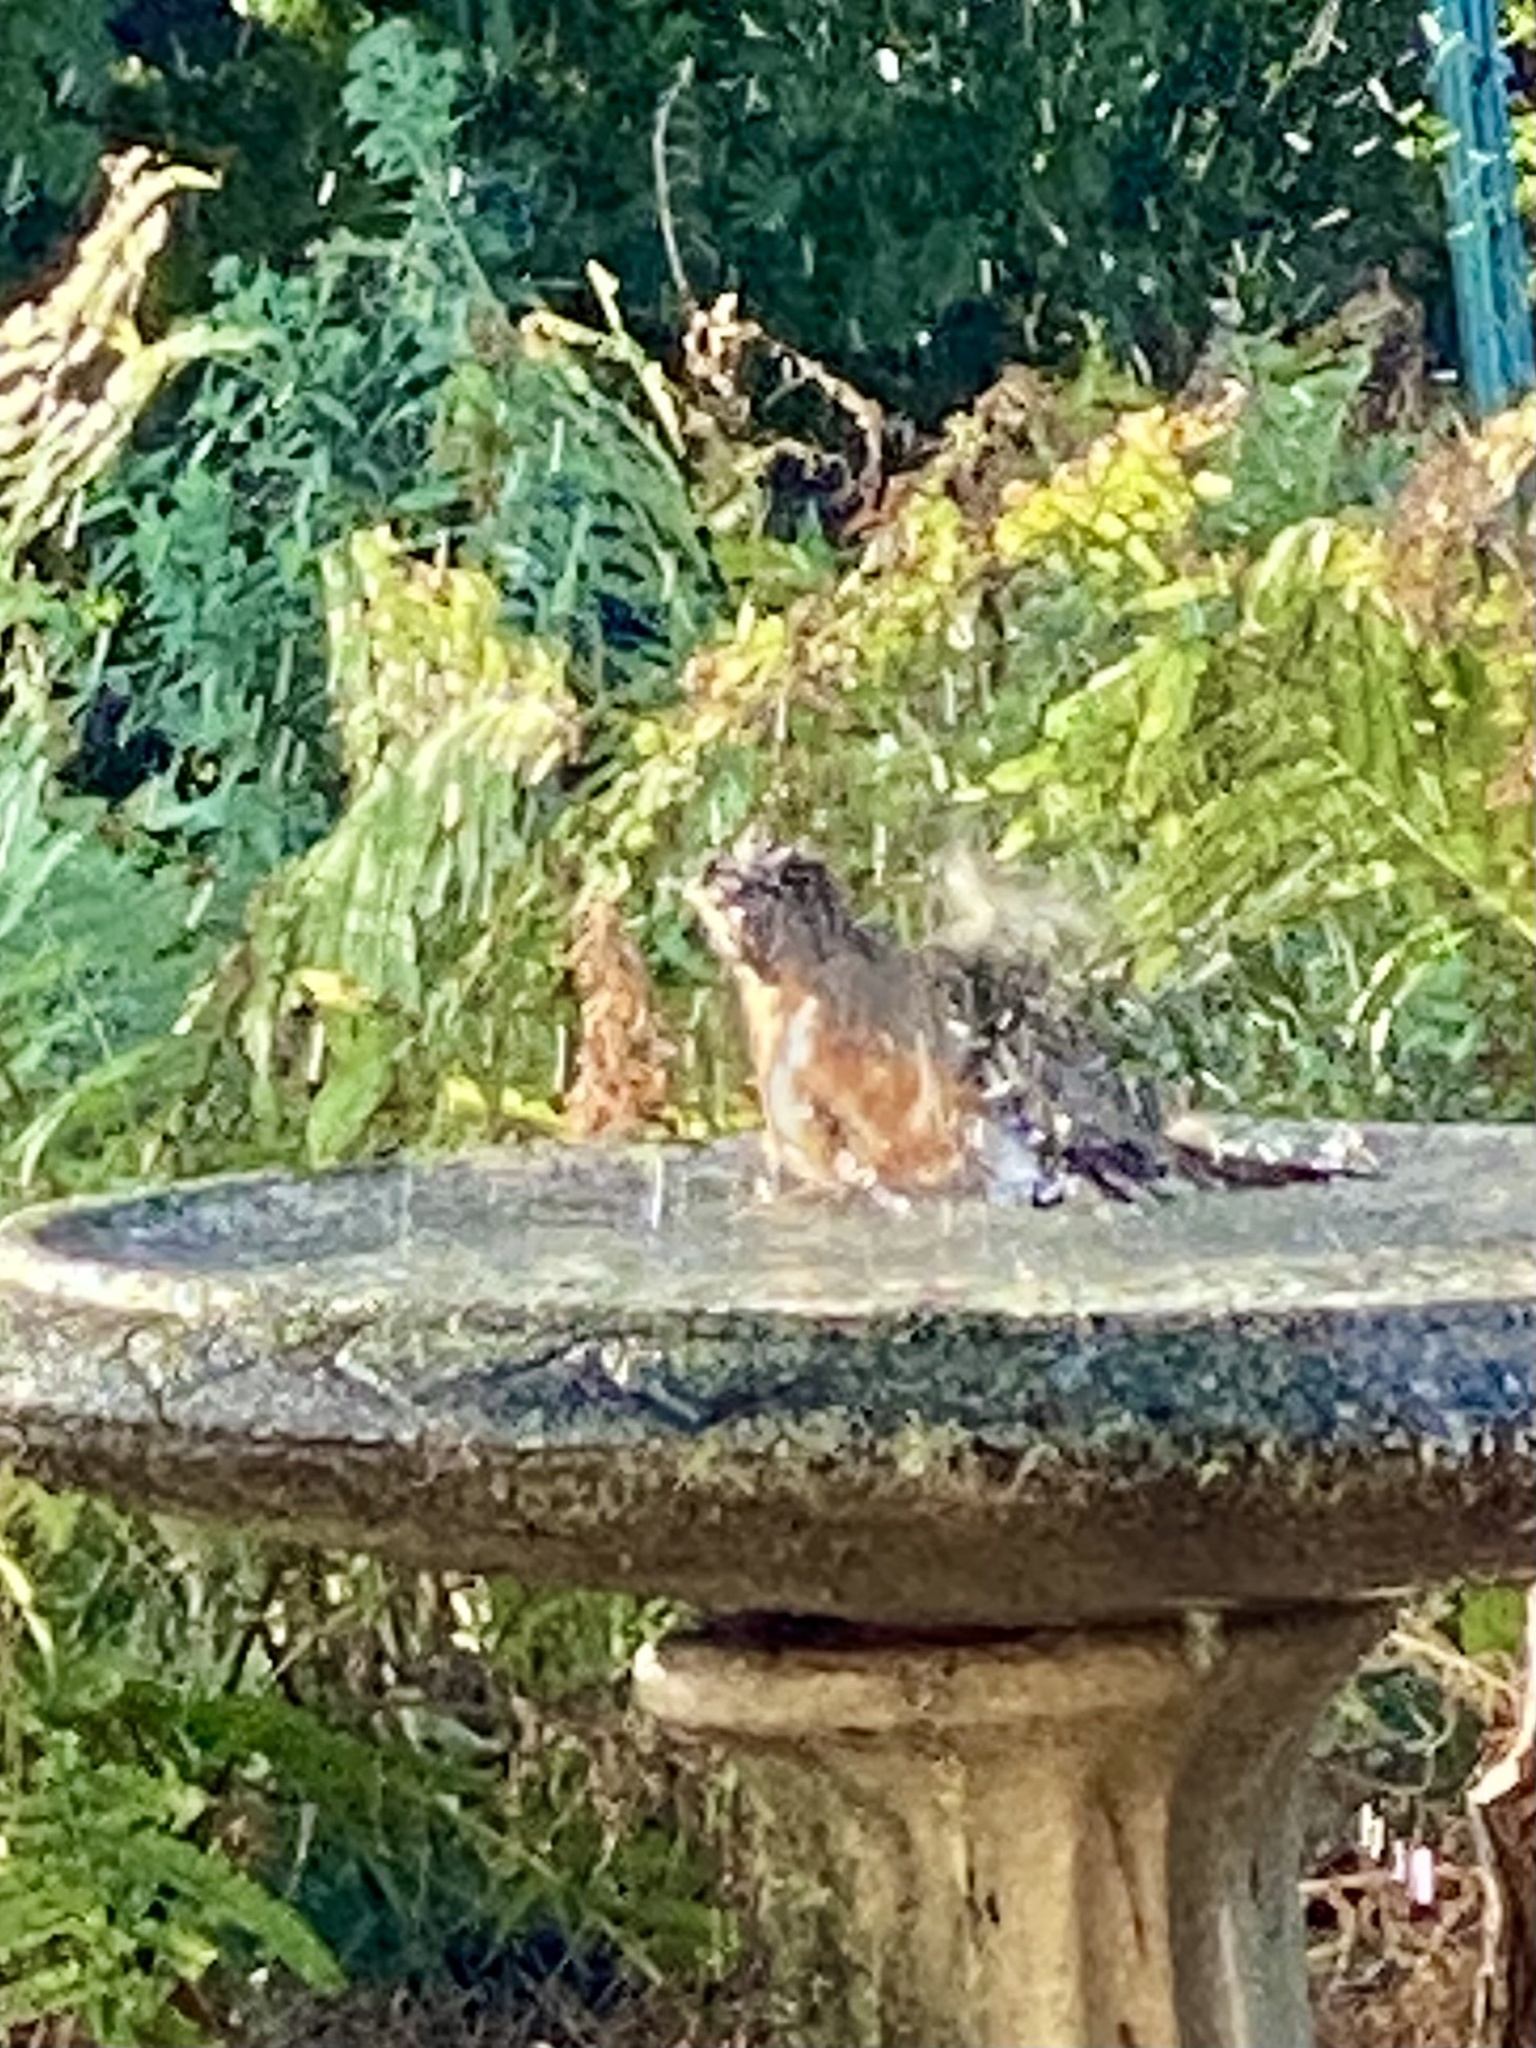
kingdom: Animalia
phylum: Chordata
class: Aves
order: Passeriformes
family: Turdidae
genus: Turdus
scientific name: Turdus migratorius
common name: American robin
